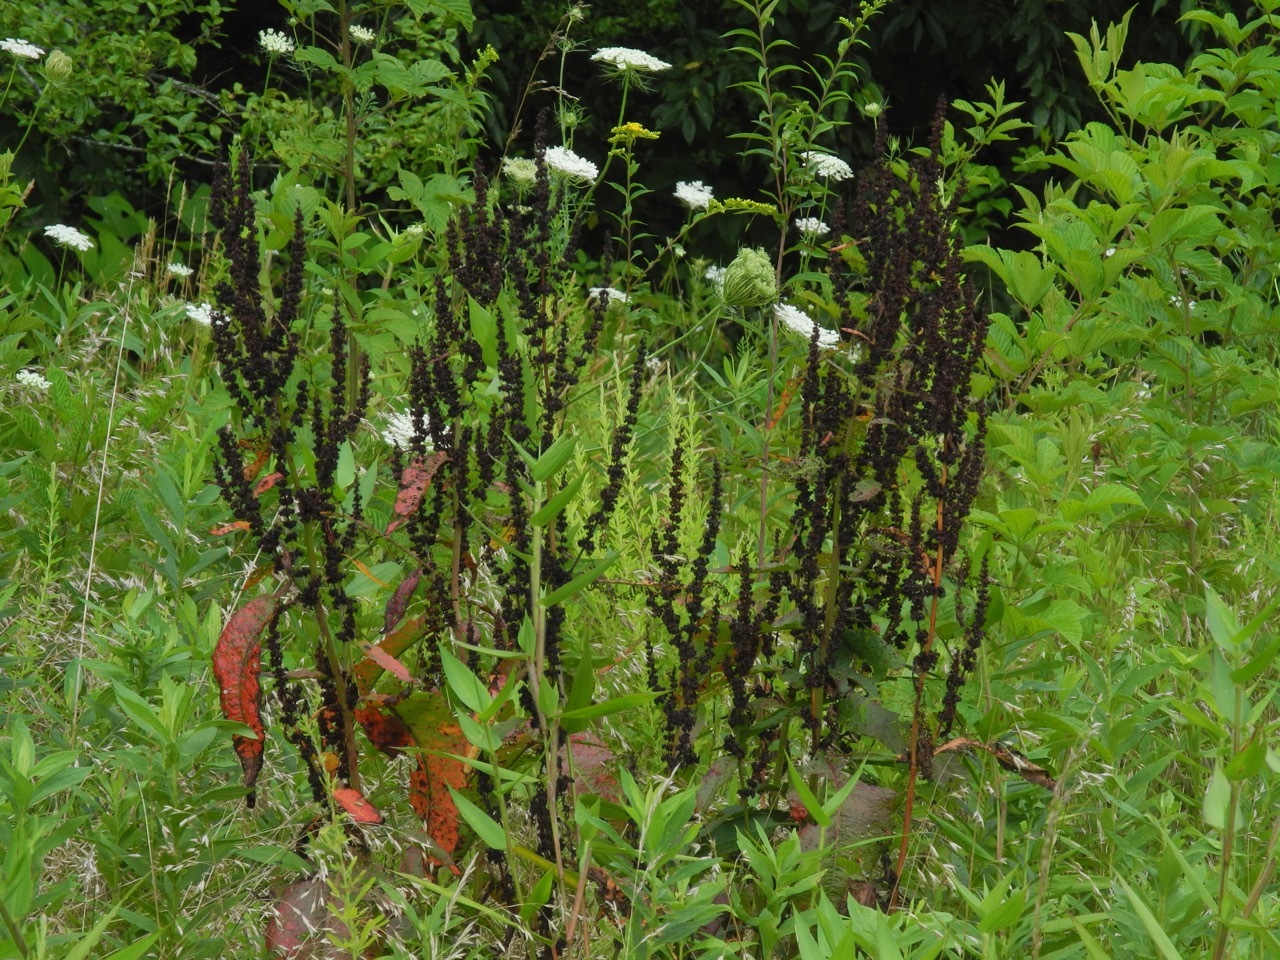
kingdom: Plantae
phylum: Tracheophyta
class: Magnoliopsida
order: Caryophyllales
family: Polygonaceae
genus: Rumex
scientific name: Rumex crispus
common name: Curled dock
